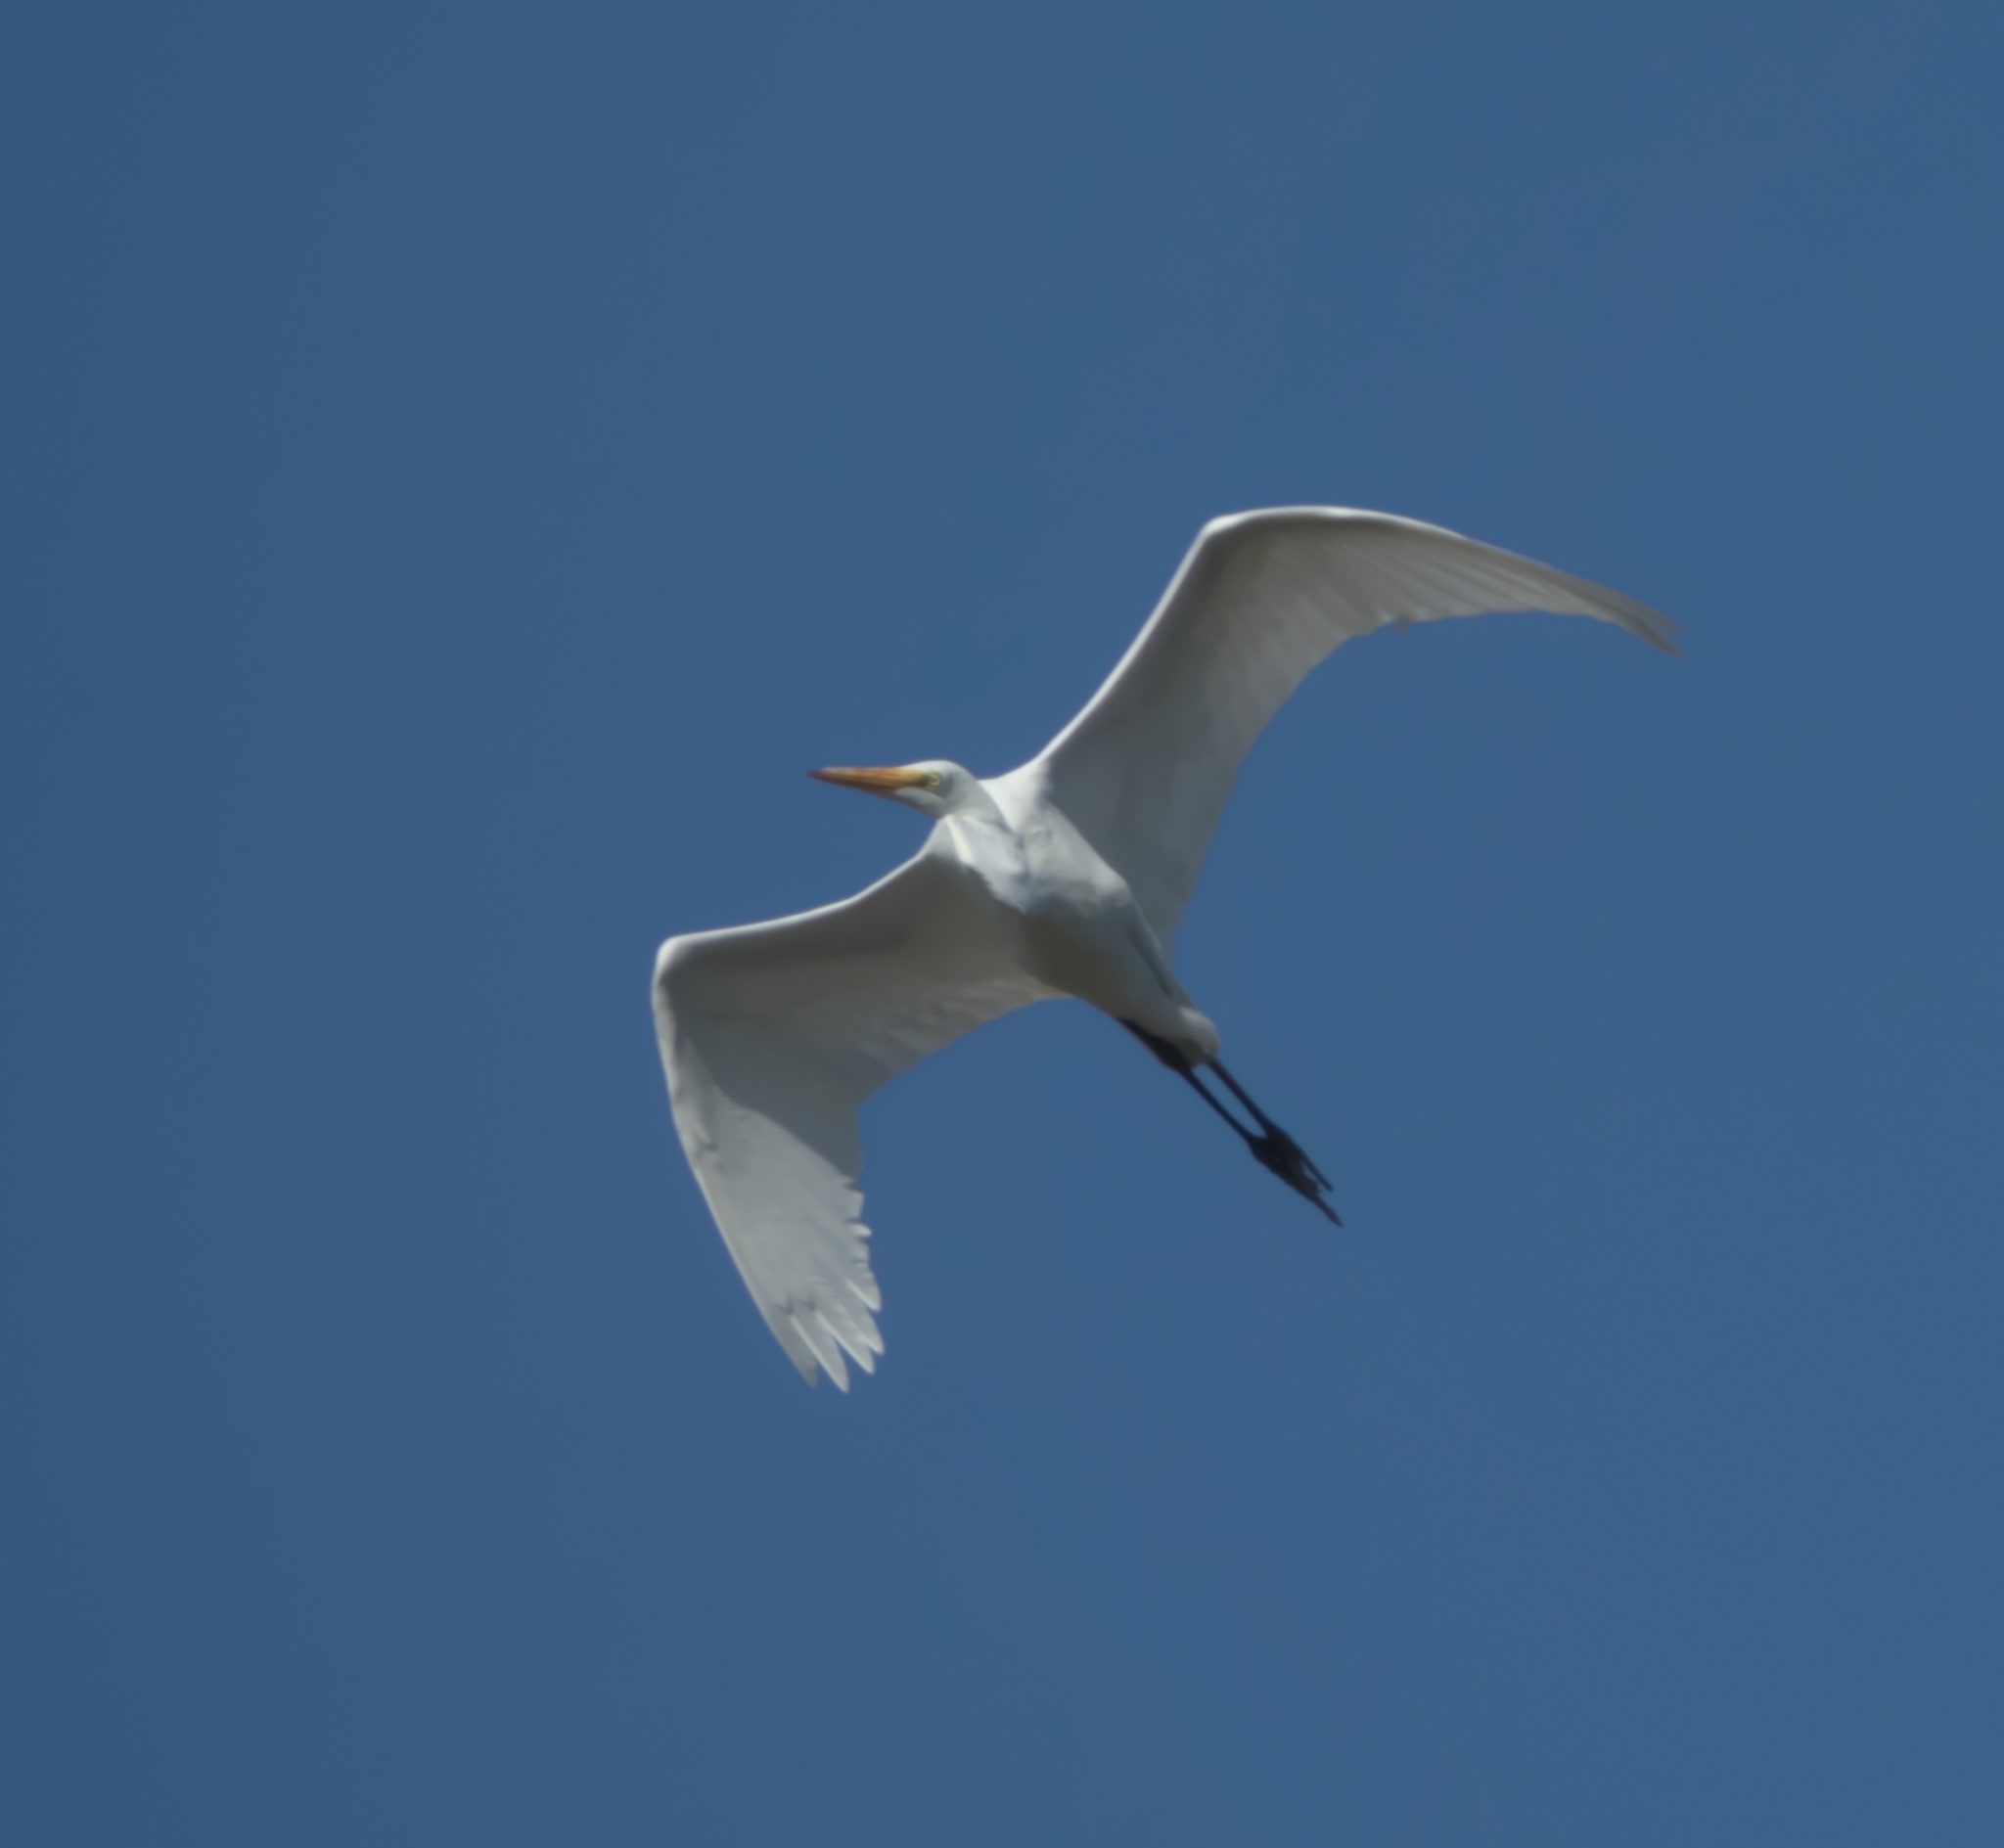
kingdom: Animalia
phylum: Chordata
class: Aves
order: Pelecaniformes
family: Ardeidae
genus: Ardea
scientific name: Ardea alba
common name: Great egret
